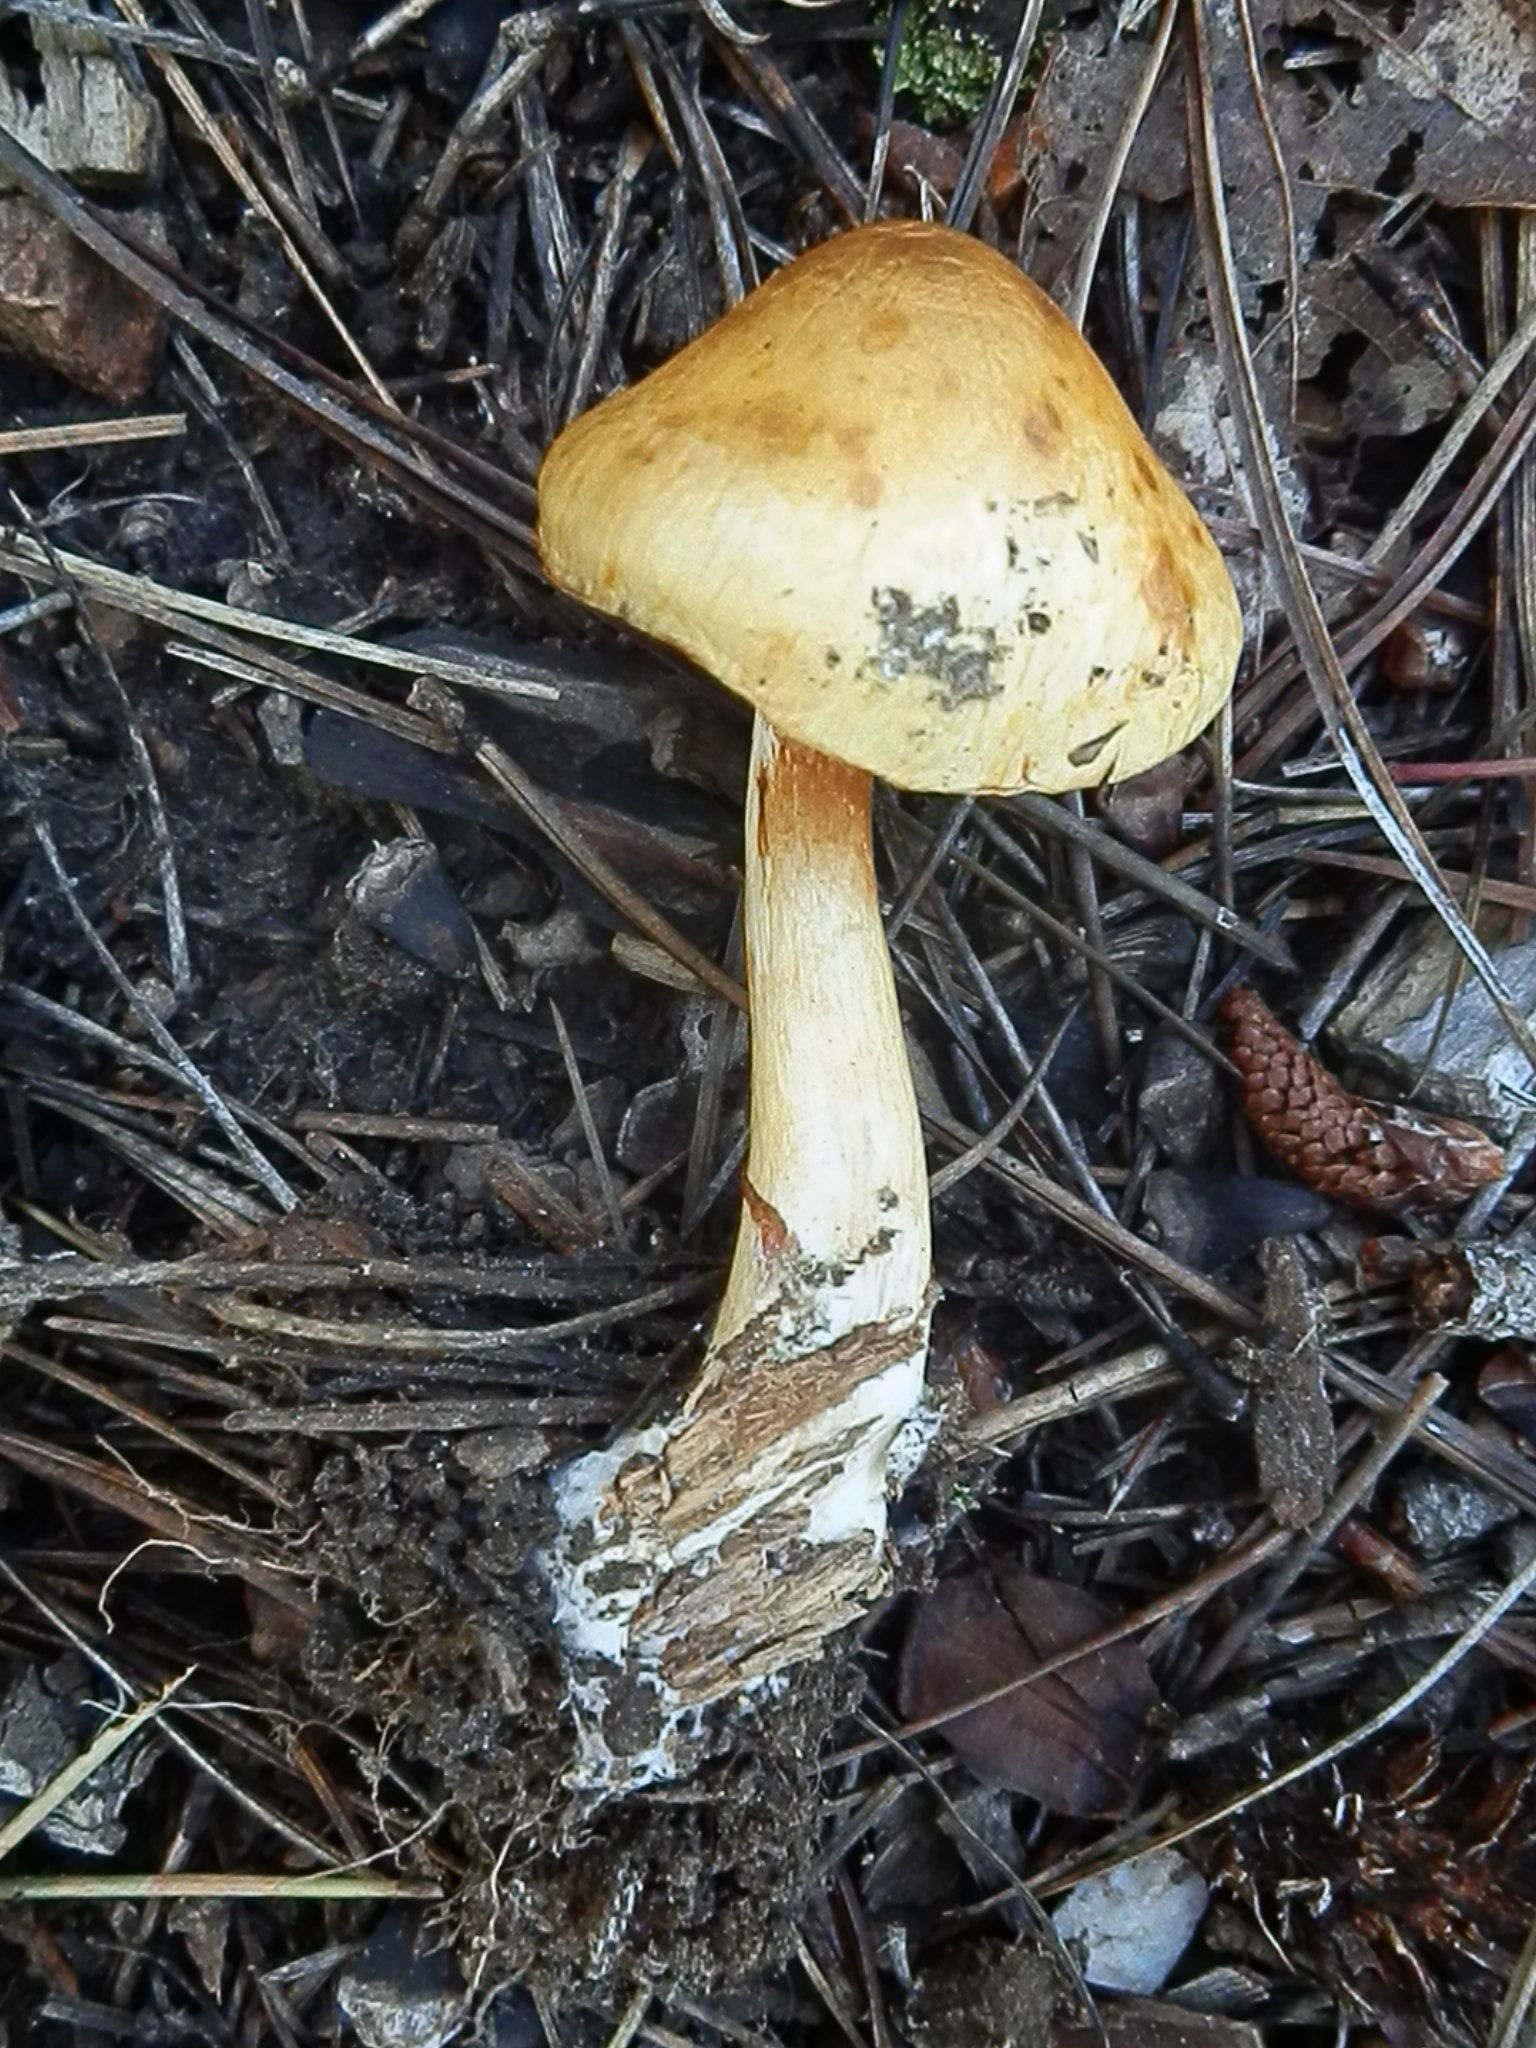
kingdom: Fungi
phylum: Basidiomycota
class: Agaricomycetes
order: Agaricales
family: Cortinariaceae
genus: Cortinarius
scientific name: Cortinarius delibutus
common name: Yellow webcap
